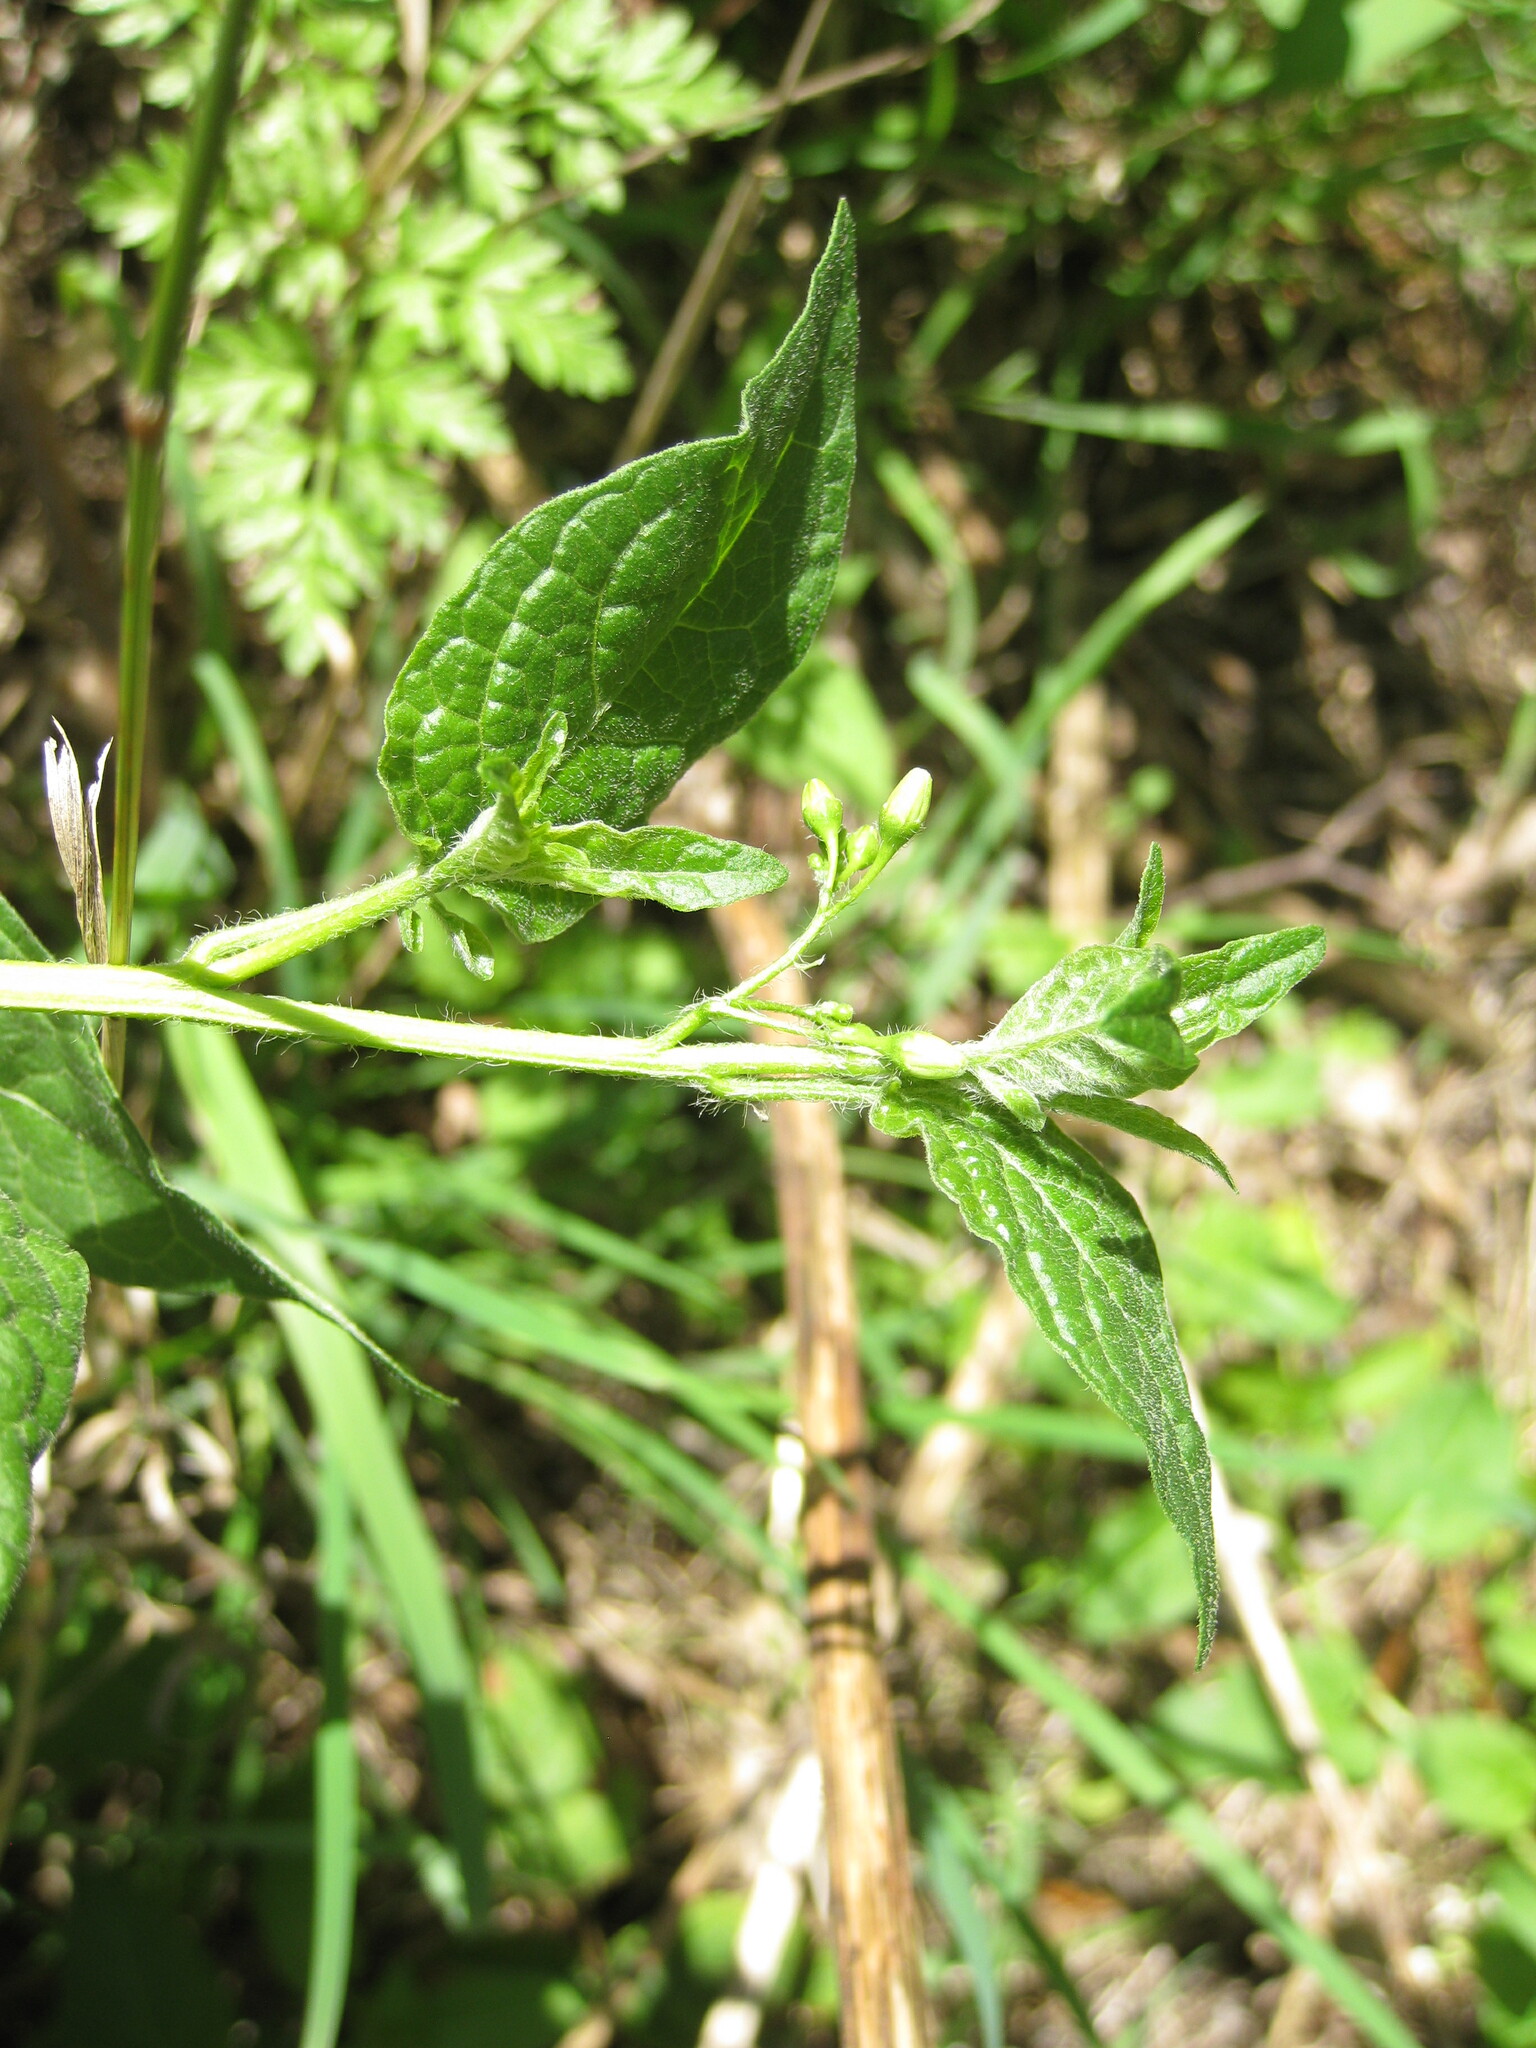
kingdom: Plantae
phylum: Tracheophyta
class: Magnoliopsida
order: Solanales
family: Solanaceae
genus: Solanum
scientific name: Solanum dulcamara
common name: Climbing nightshade
